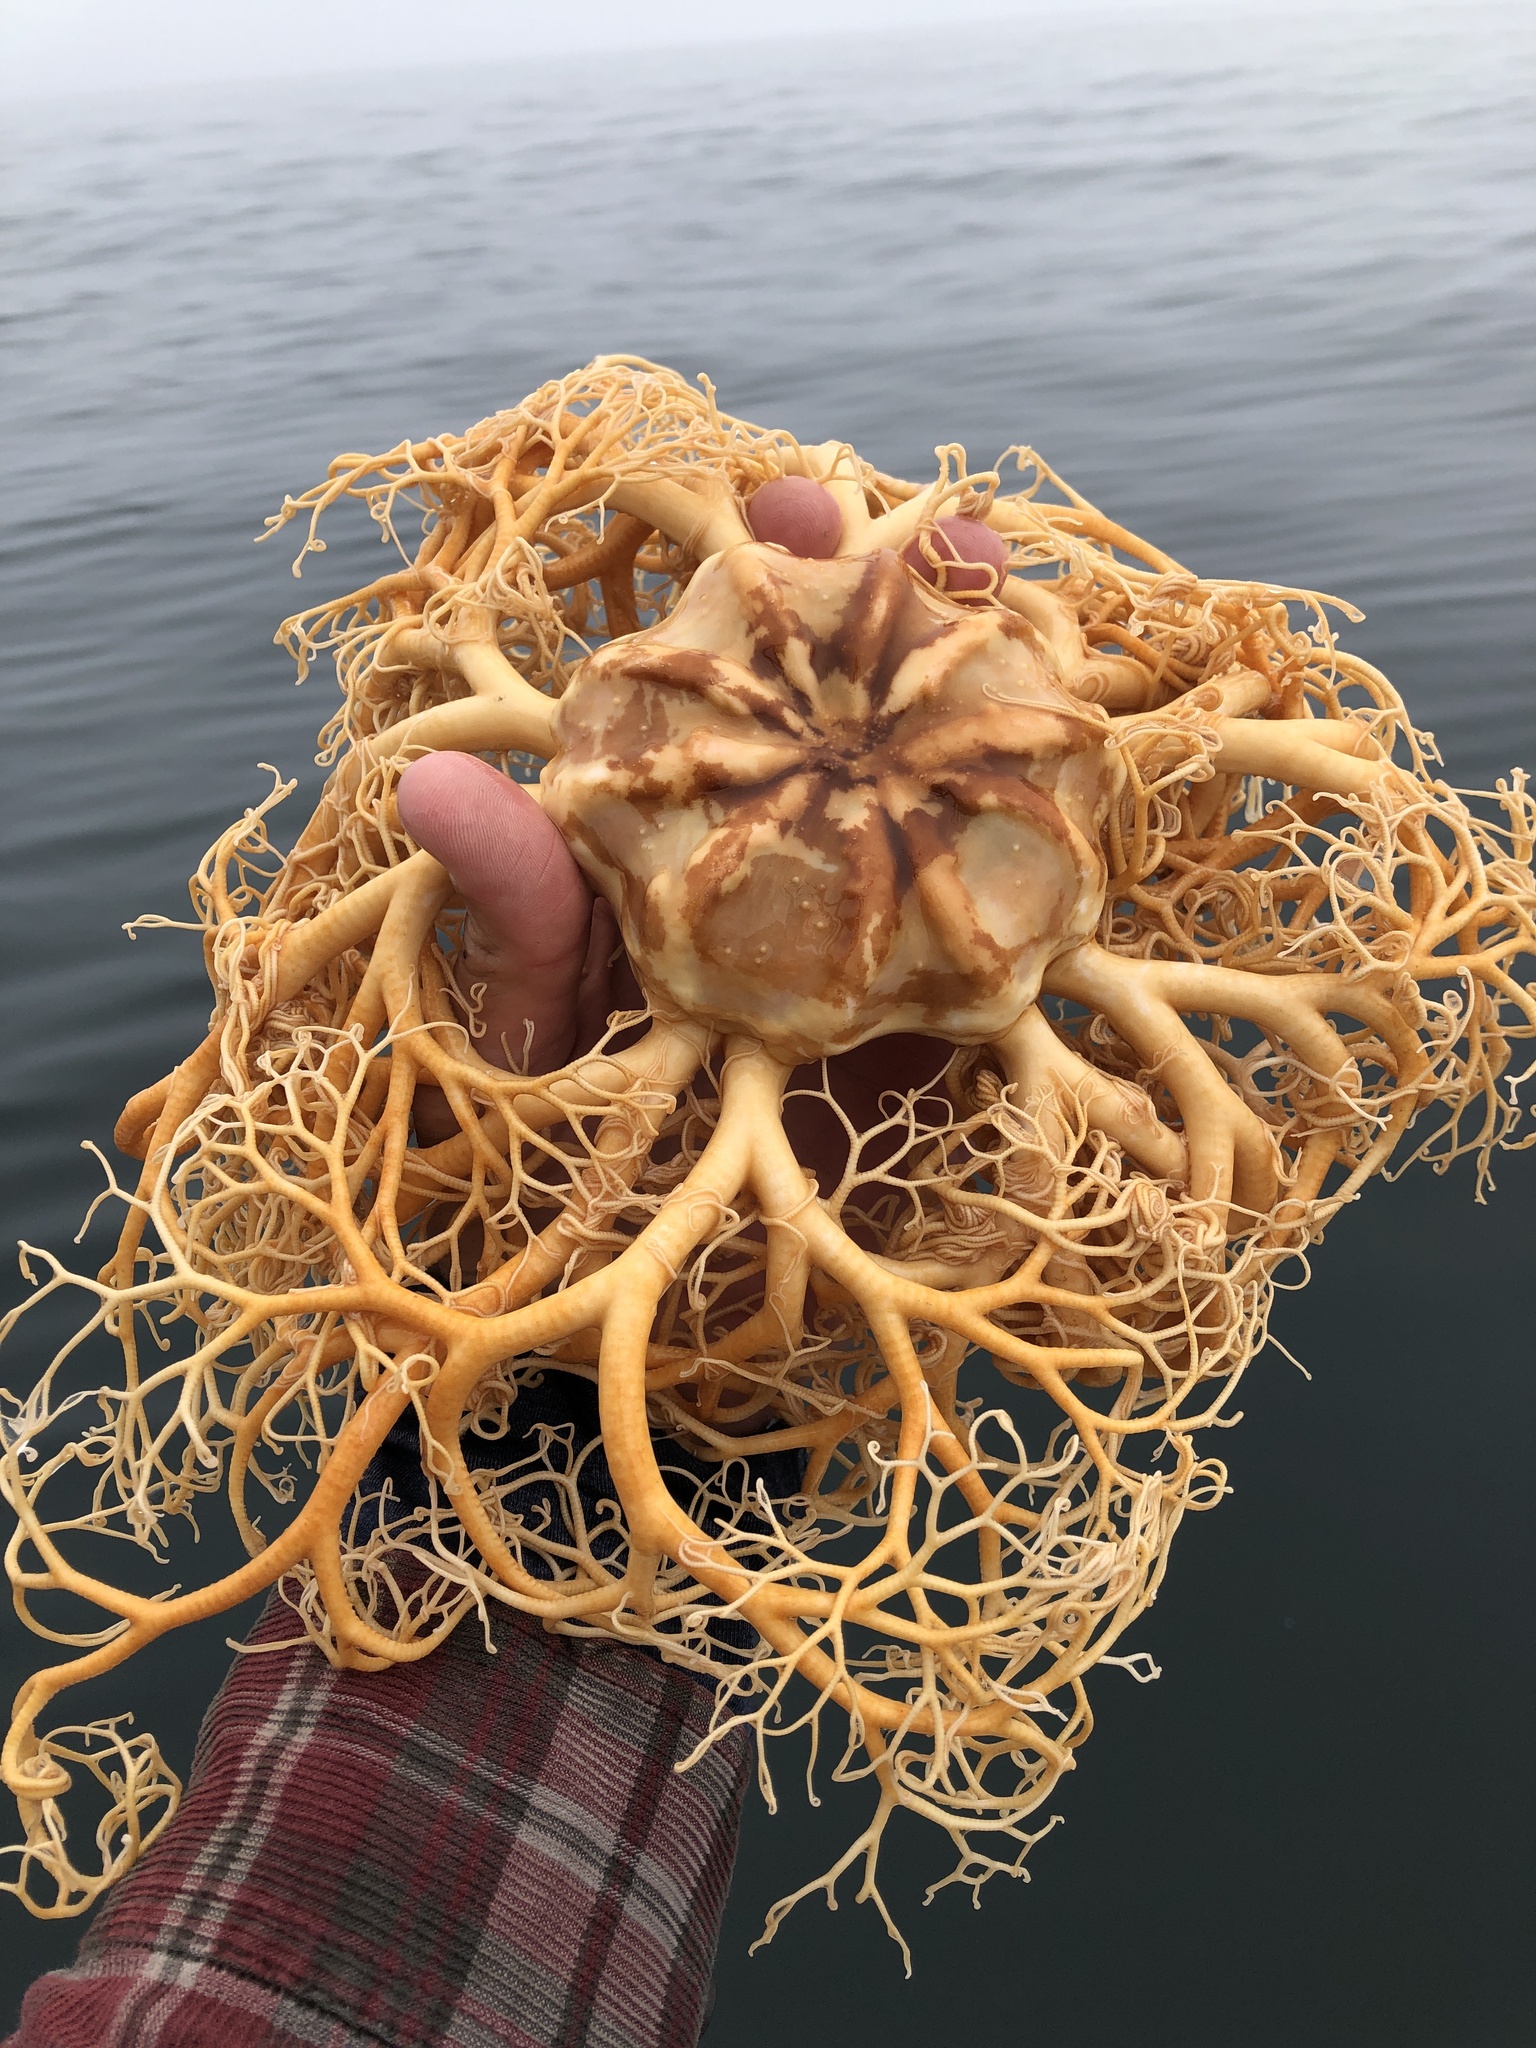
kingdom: Animalia
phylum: Echinodermata
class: Ophiuroidea
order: Euryalida
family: Gorgonocephalidae
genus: Gorgonocephalus
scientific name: Gorgonocephalus eucnemis
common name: Common basket star
